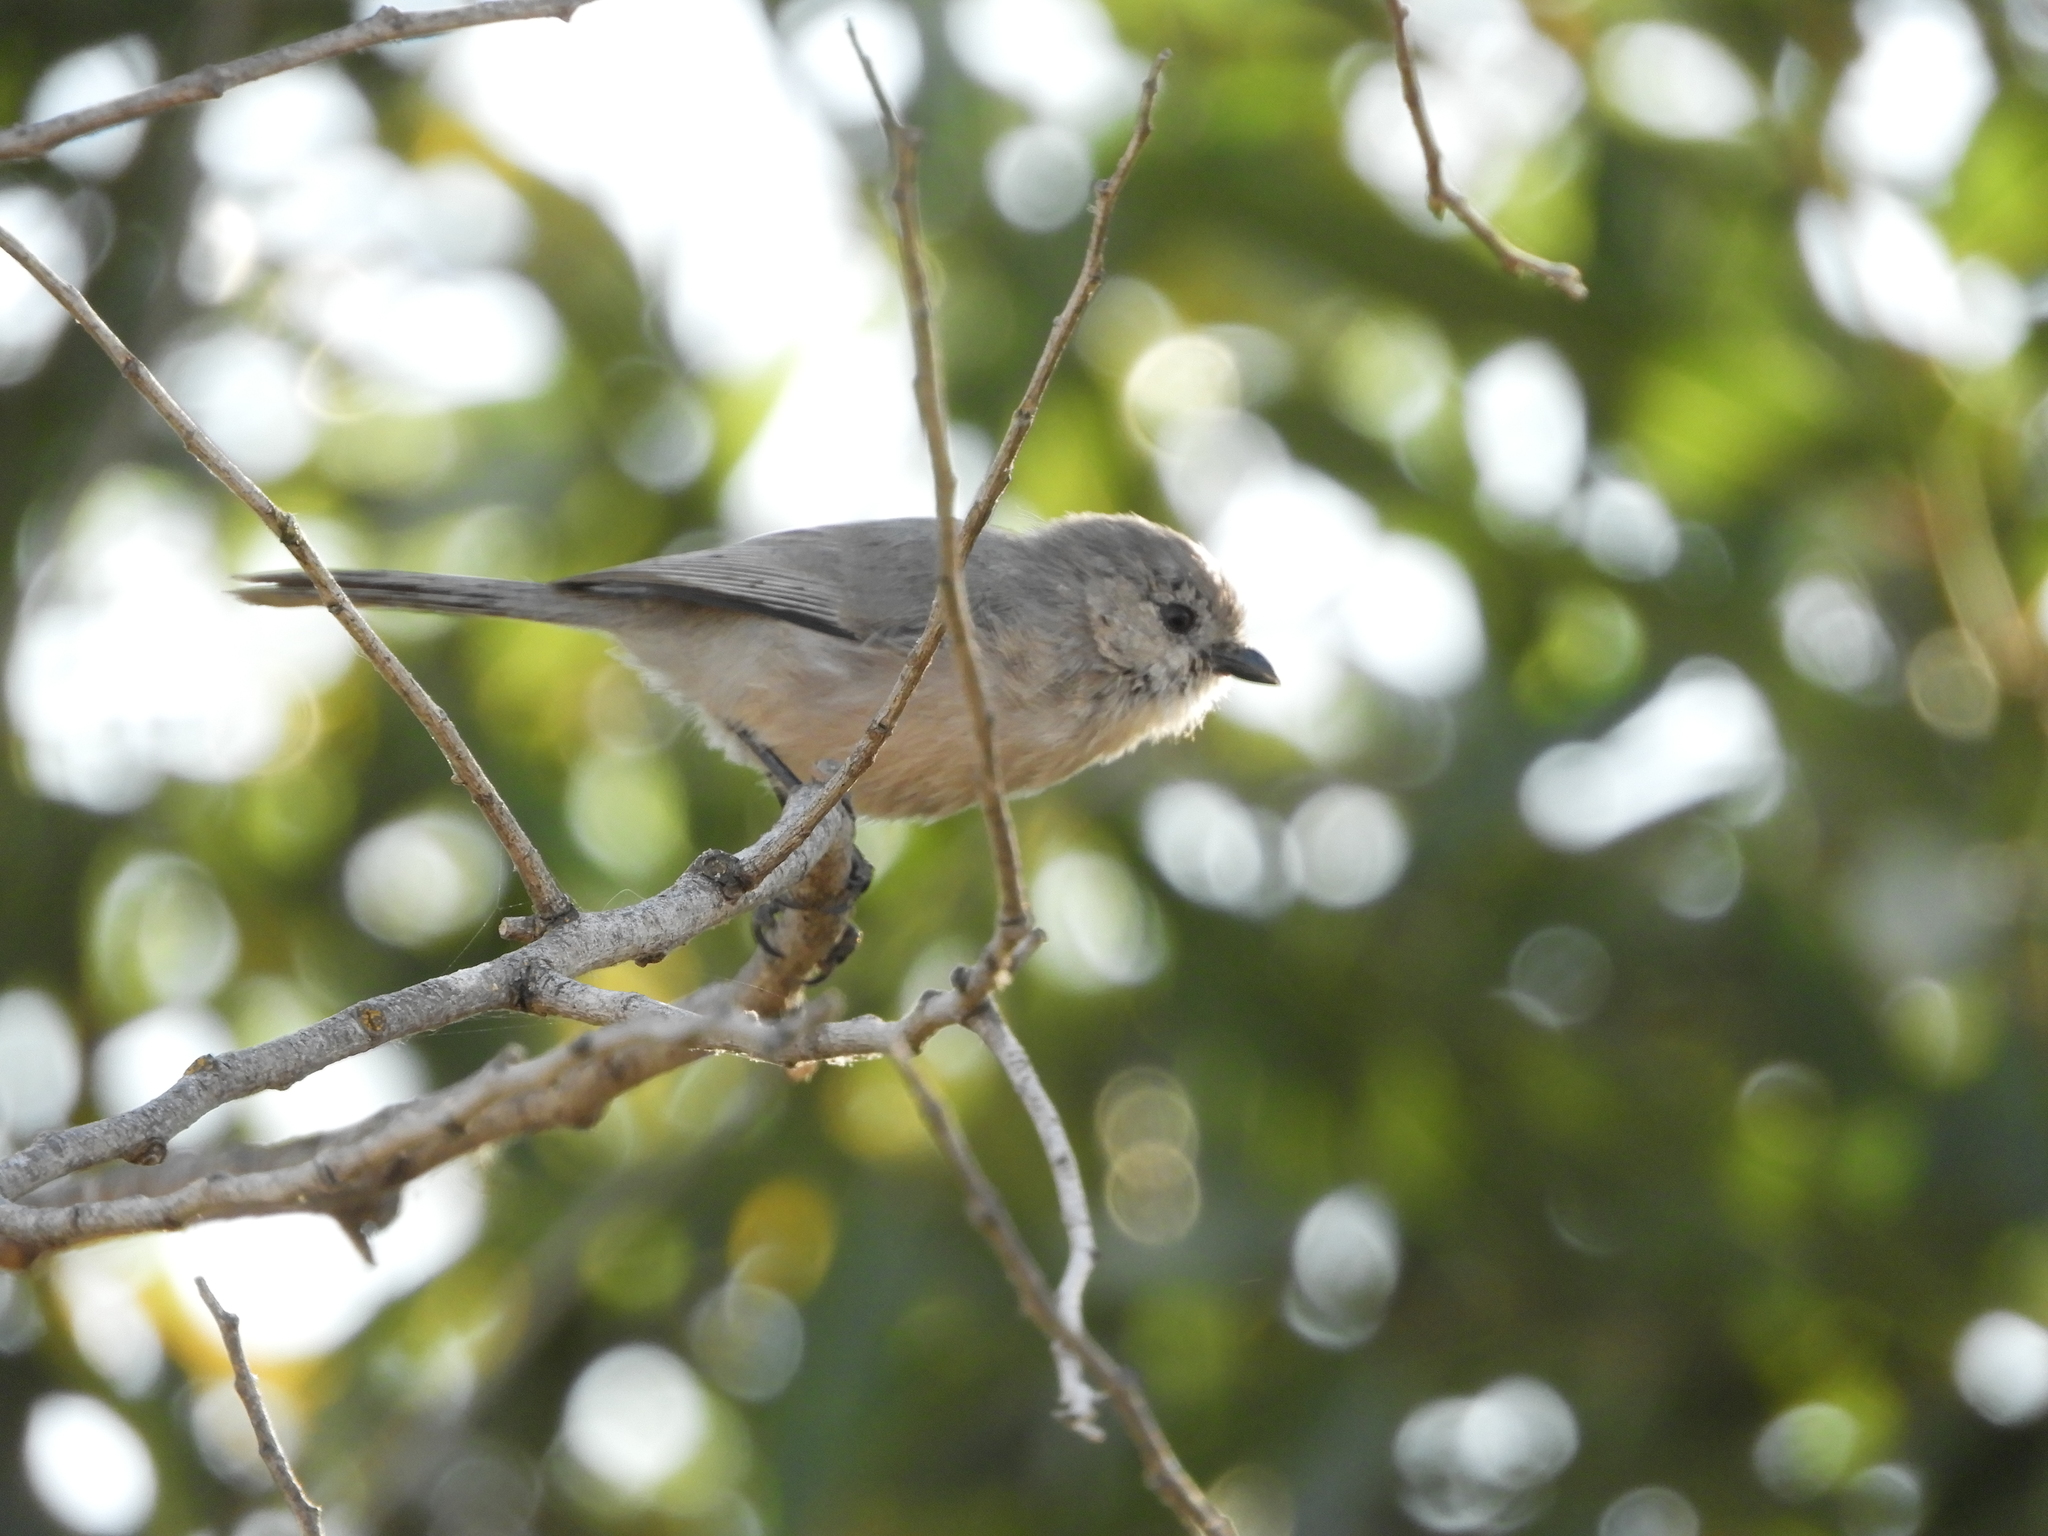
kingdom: Animalia
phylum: Chordata
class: Aves
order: Passeriformes
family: Aegithalidae
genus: Psaltriparus
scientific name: Psaltriparus minimus
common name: American bushtit
